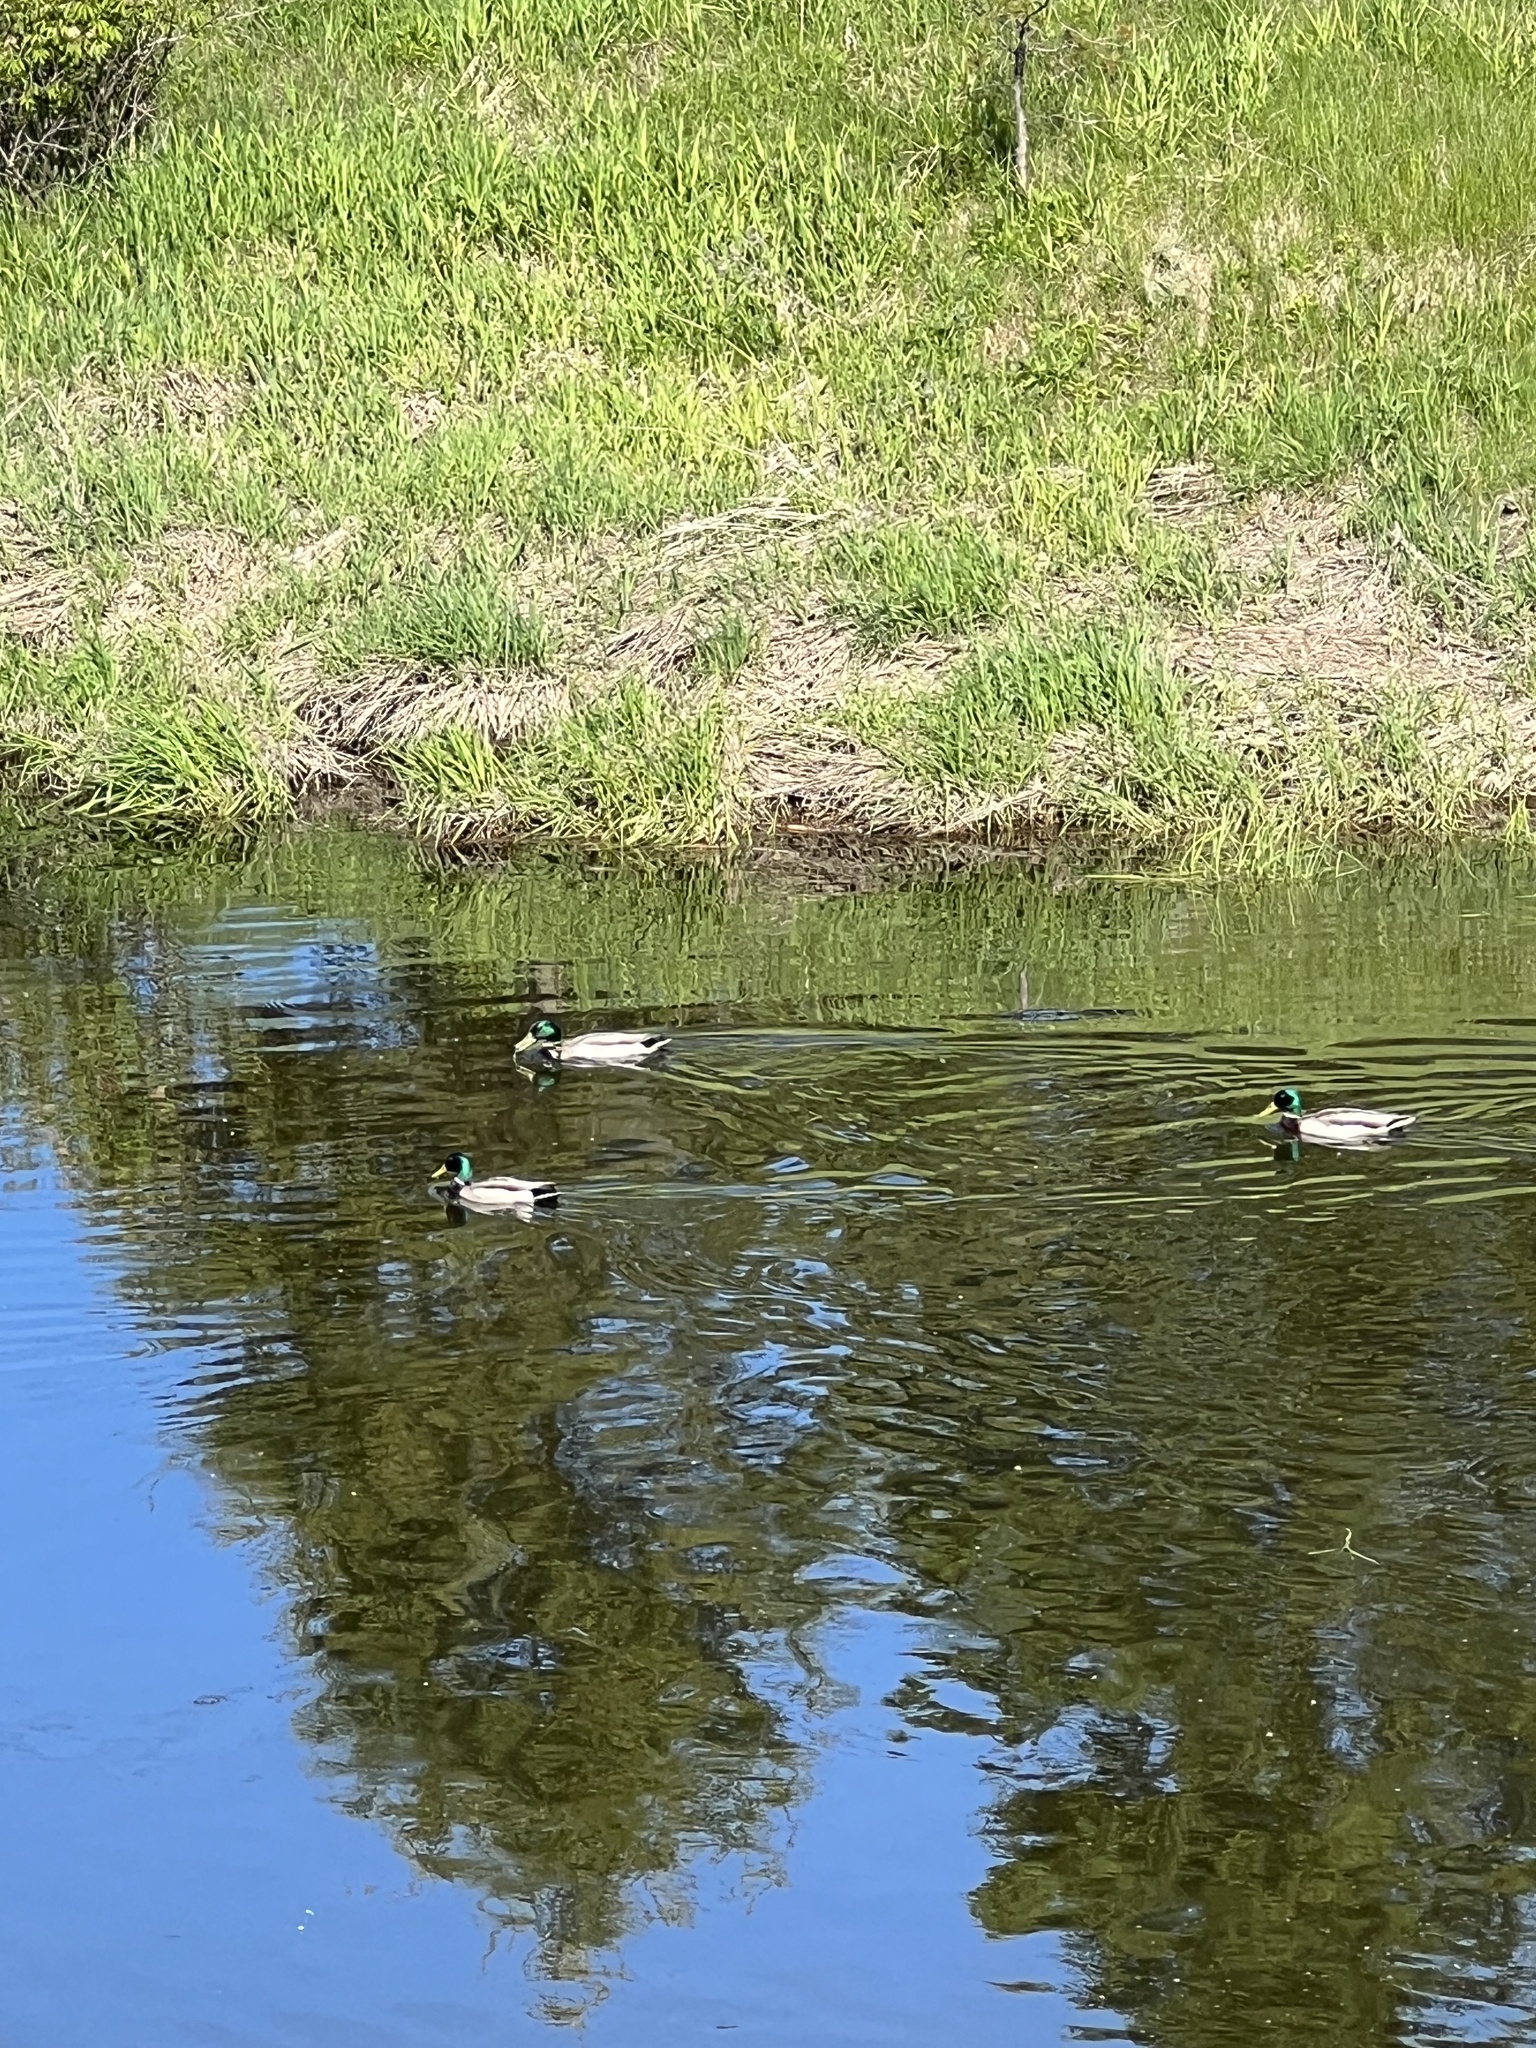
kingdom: Animalia
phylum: Chordata
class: Aves
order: Anseriformes
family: Anatidae
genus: Anas
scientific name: Anas platyrhynchos
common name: Mallard
